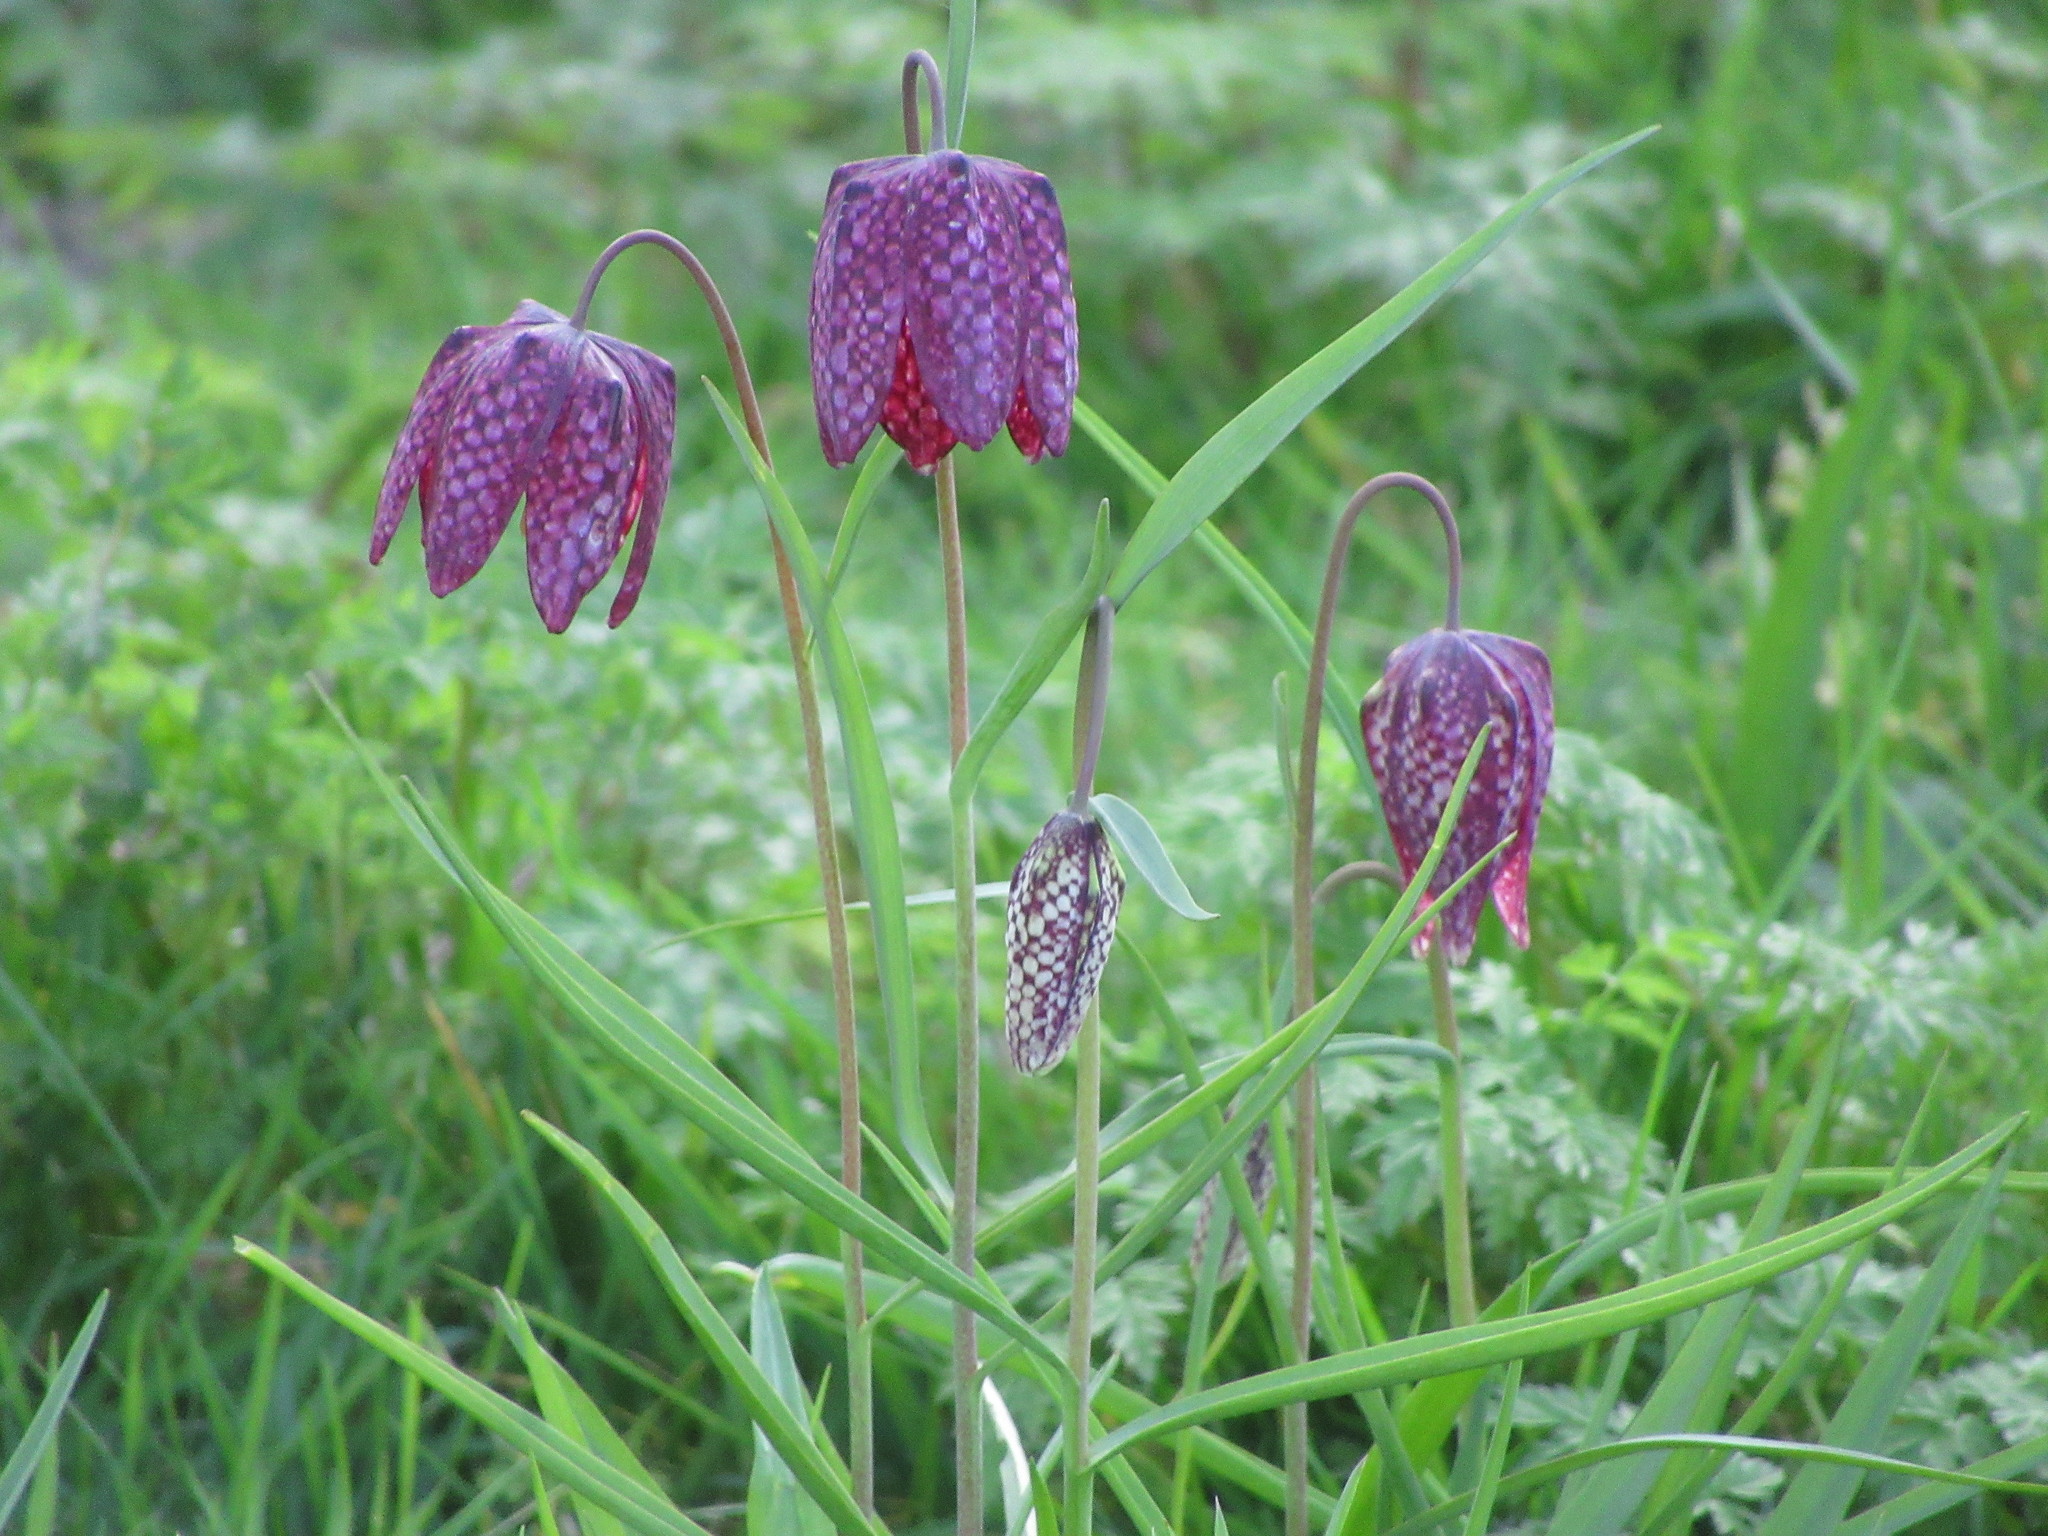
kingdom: Plantae
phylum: Tracheophyta
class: Liliopsida
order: Liliales
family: Liliaceae
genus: Fritillaria
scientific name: Fritillaria meleagris
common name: Fritillary
